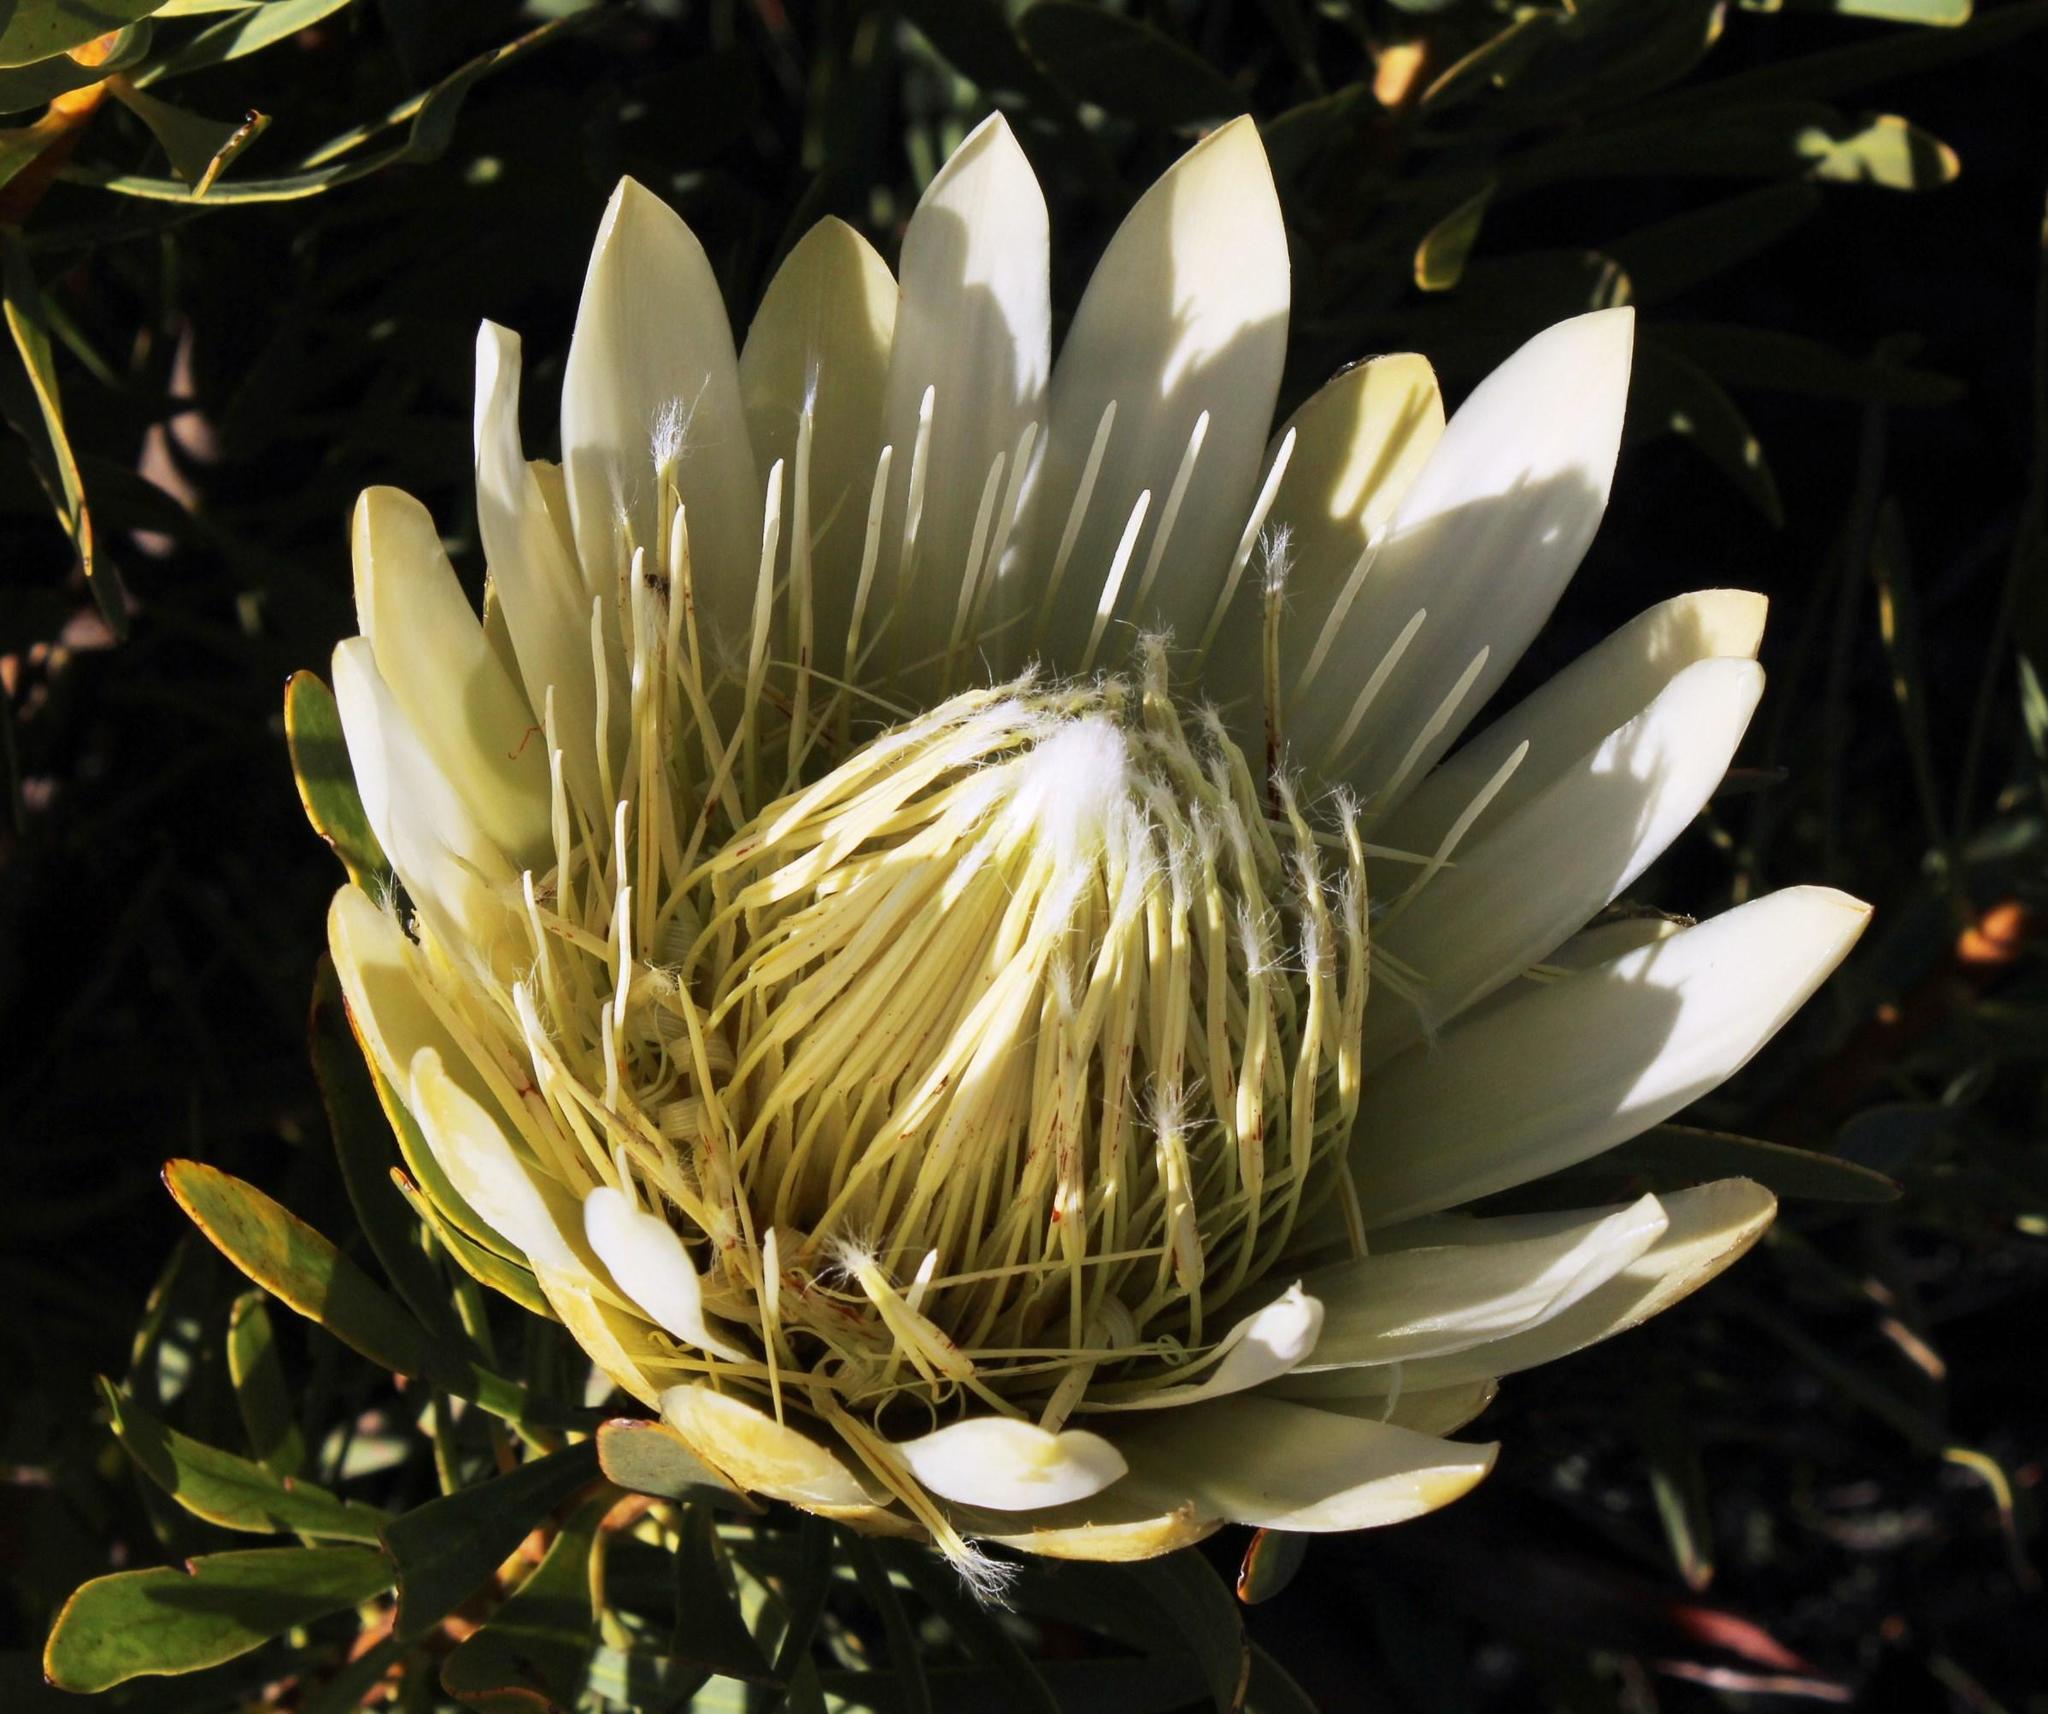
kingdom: Plantae
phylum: Tracheophyta
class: Magnoliopsida
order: Proteales
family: Proteaceae
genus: Protea
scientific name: Protea repens
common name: Sugarbush
